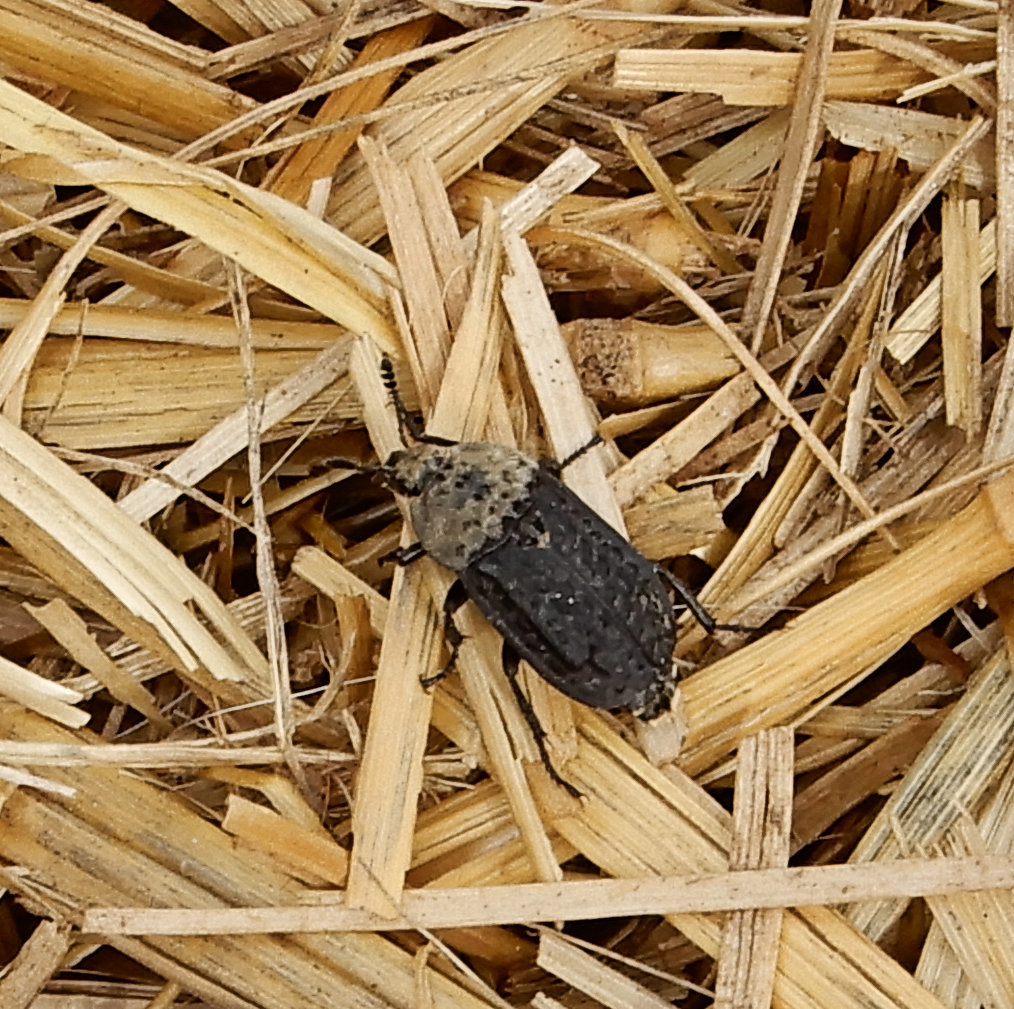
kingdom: Animalia
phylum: Arthropoda
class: Insecta
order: Coleoptera
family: Staphylinidae
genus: Thanatophilus
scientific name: Thanatophilus lapponicus
